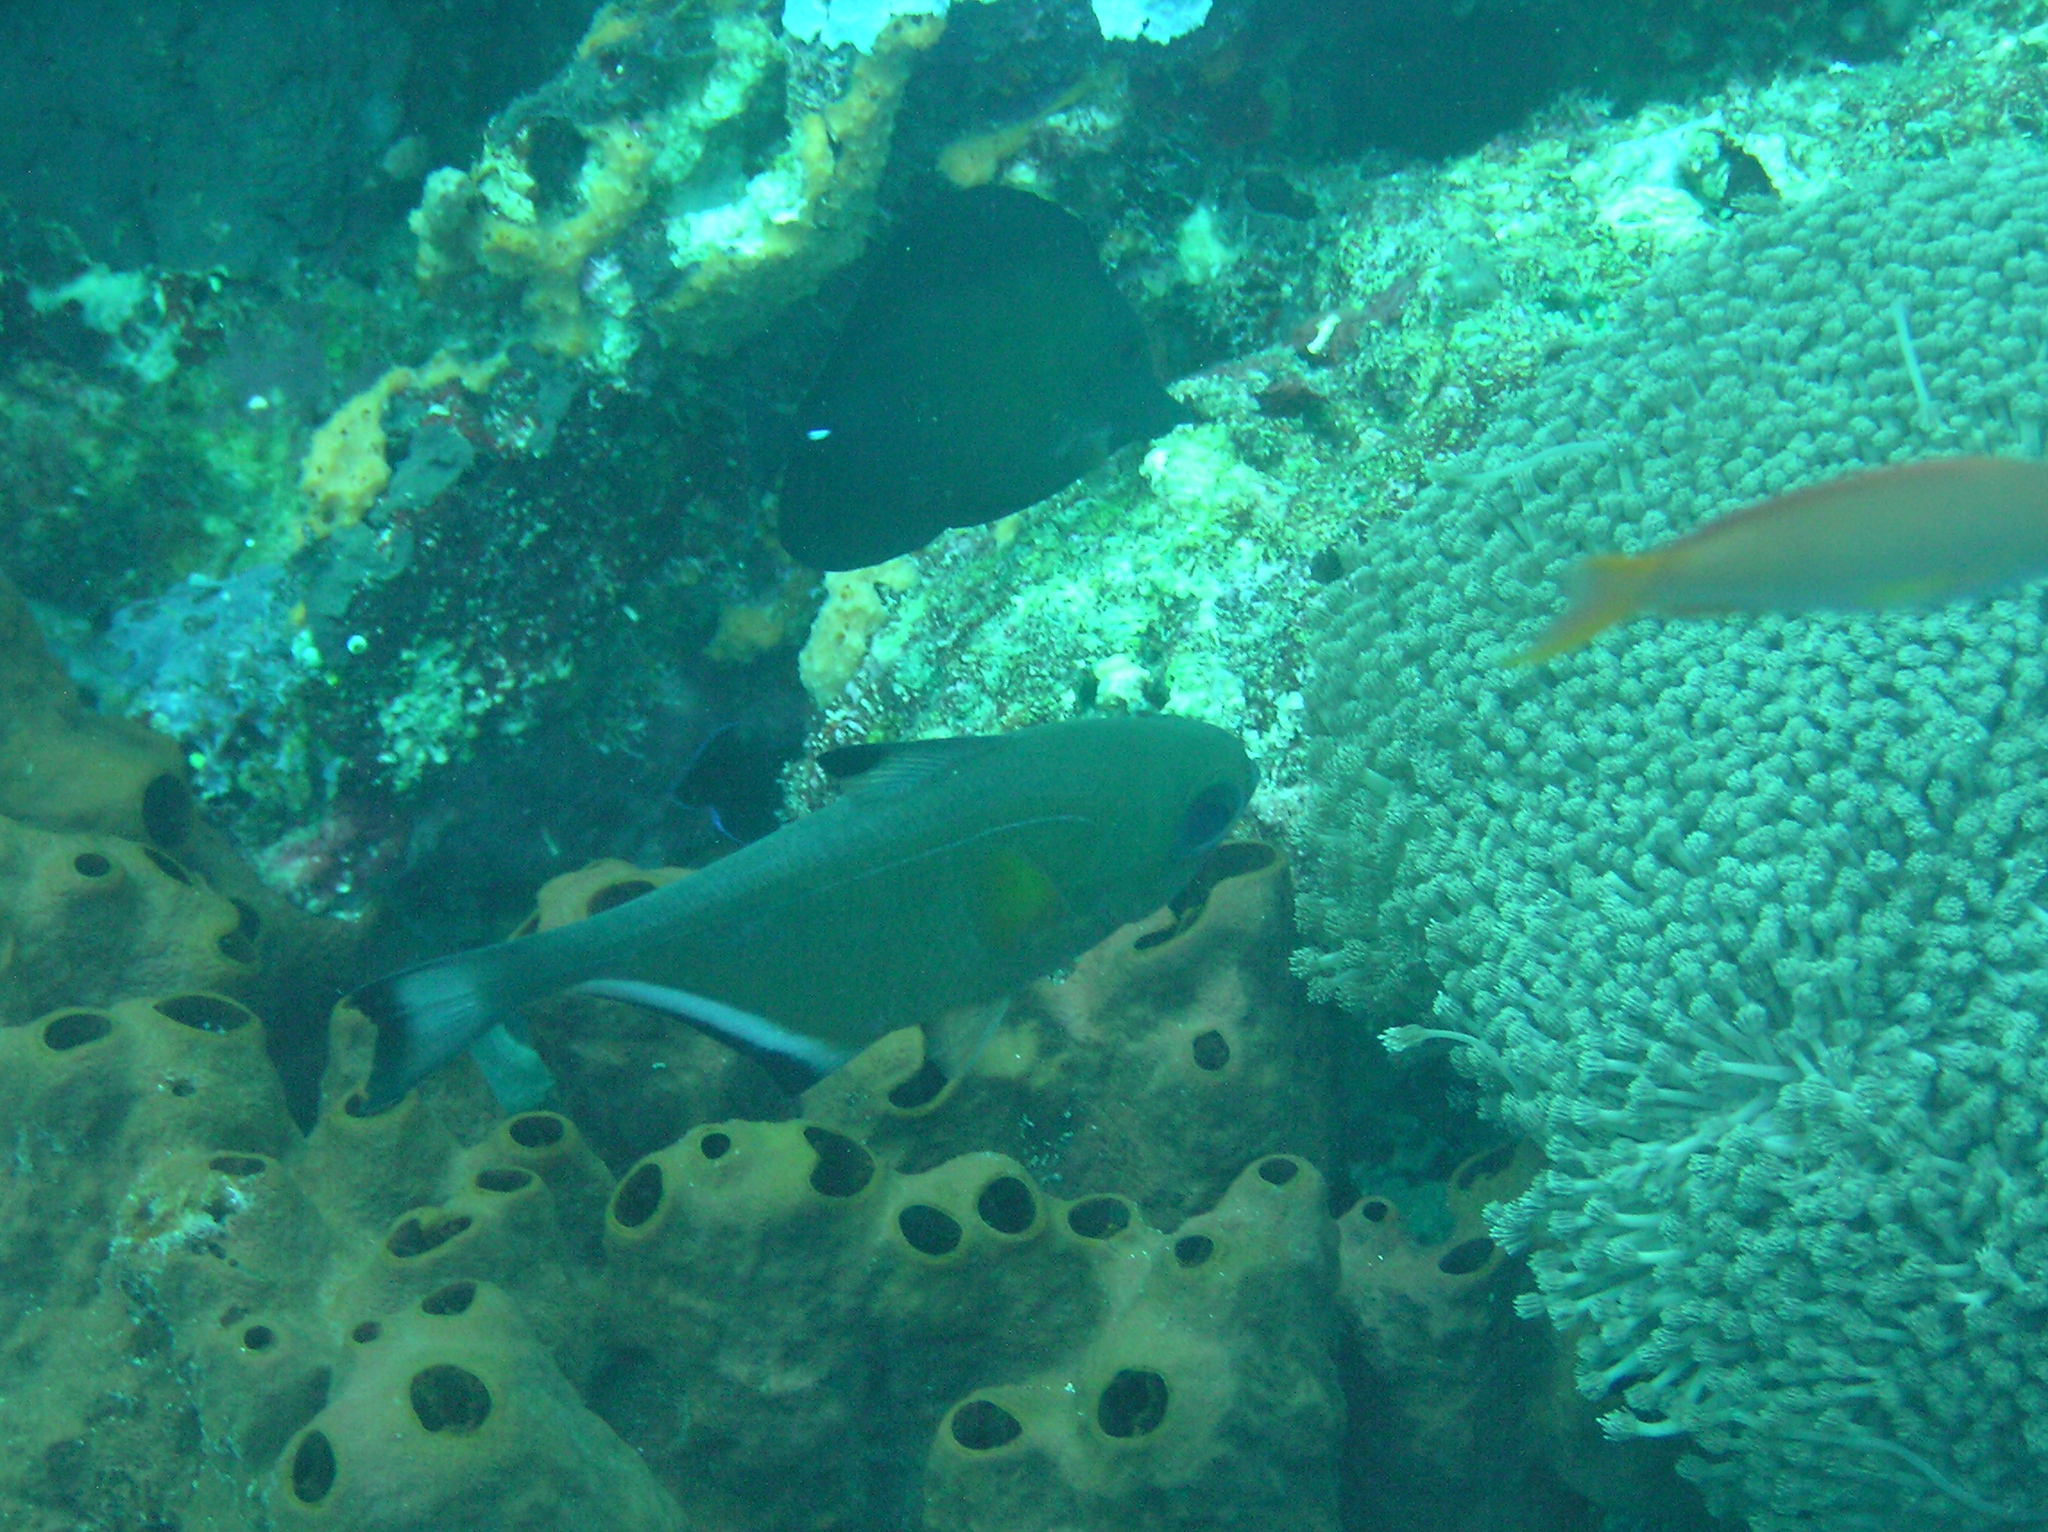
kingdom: Animalia
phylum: Chordata
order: Perciformes
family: Pempheridae
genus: Pempheris
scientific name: Pempheris vanicolensis
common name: Vanikoro sweeper
